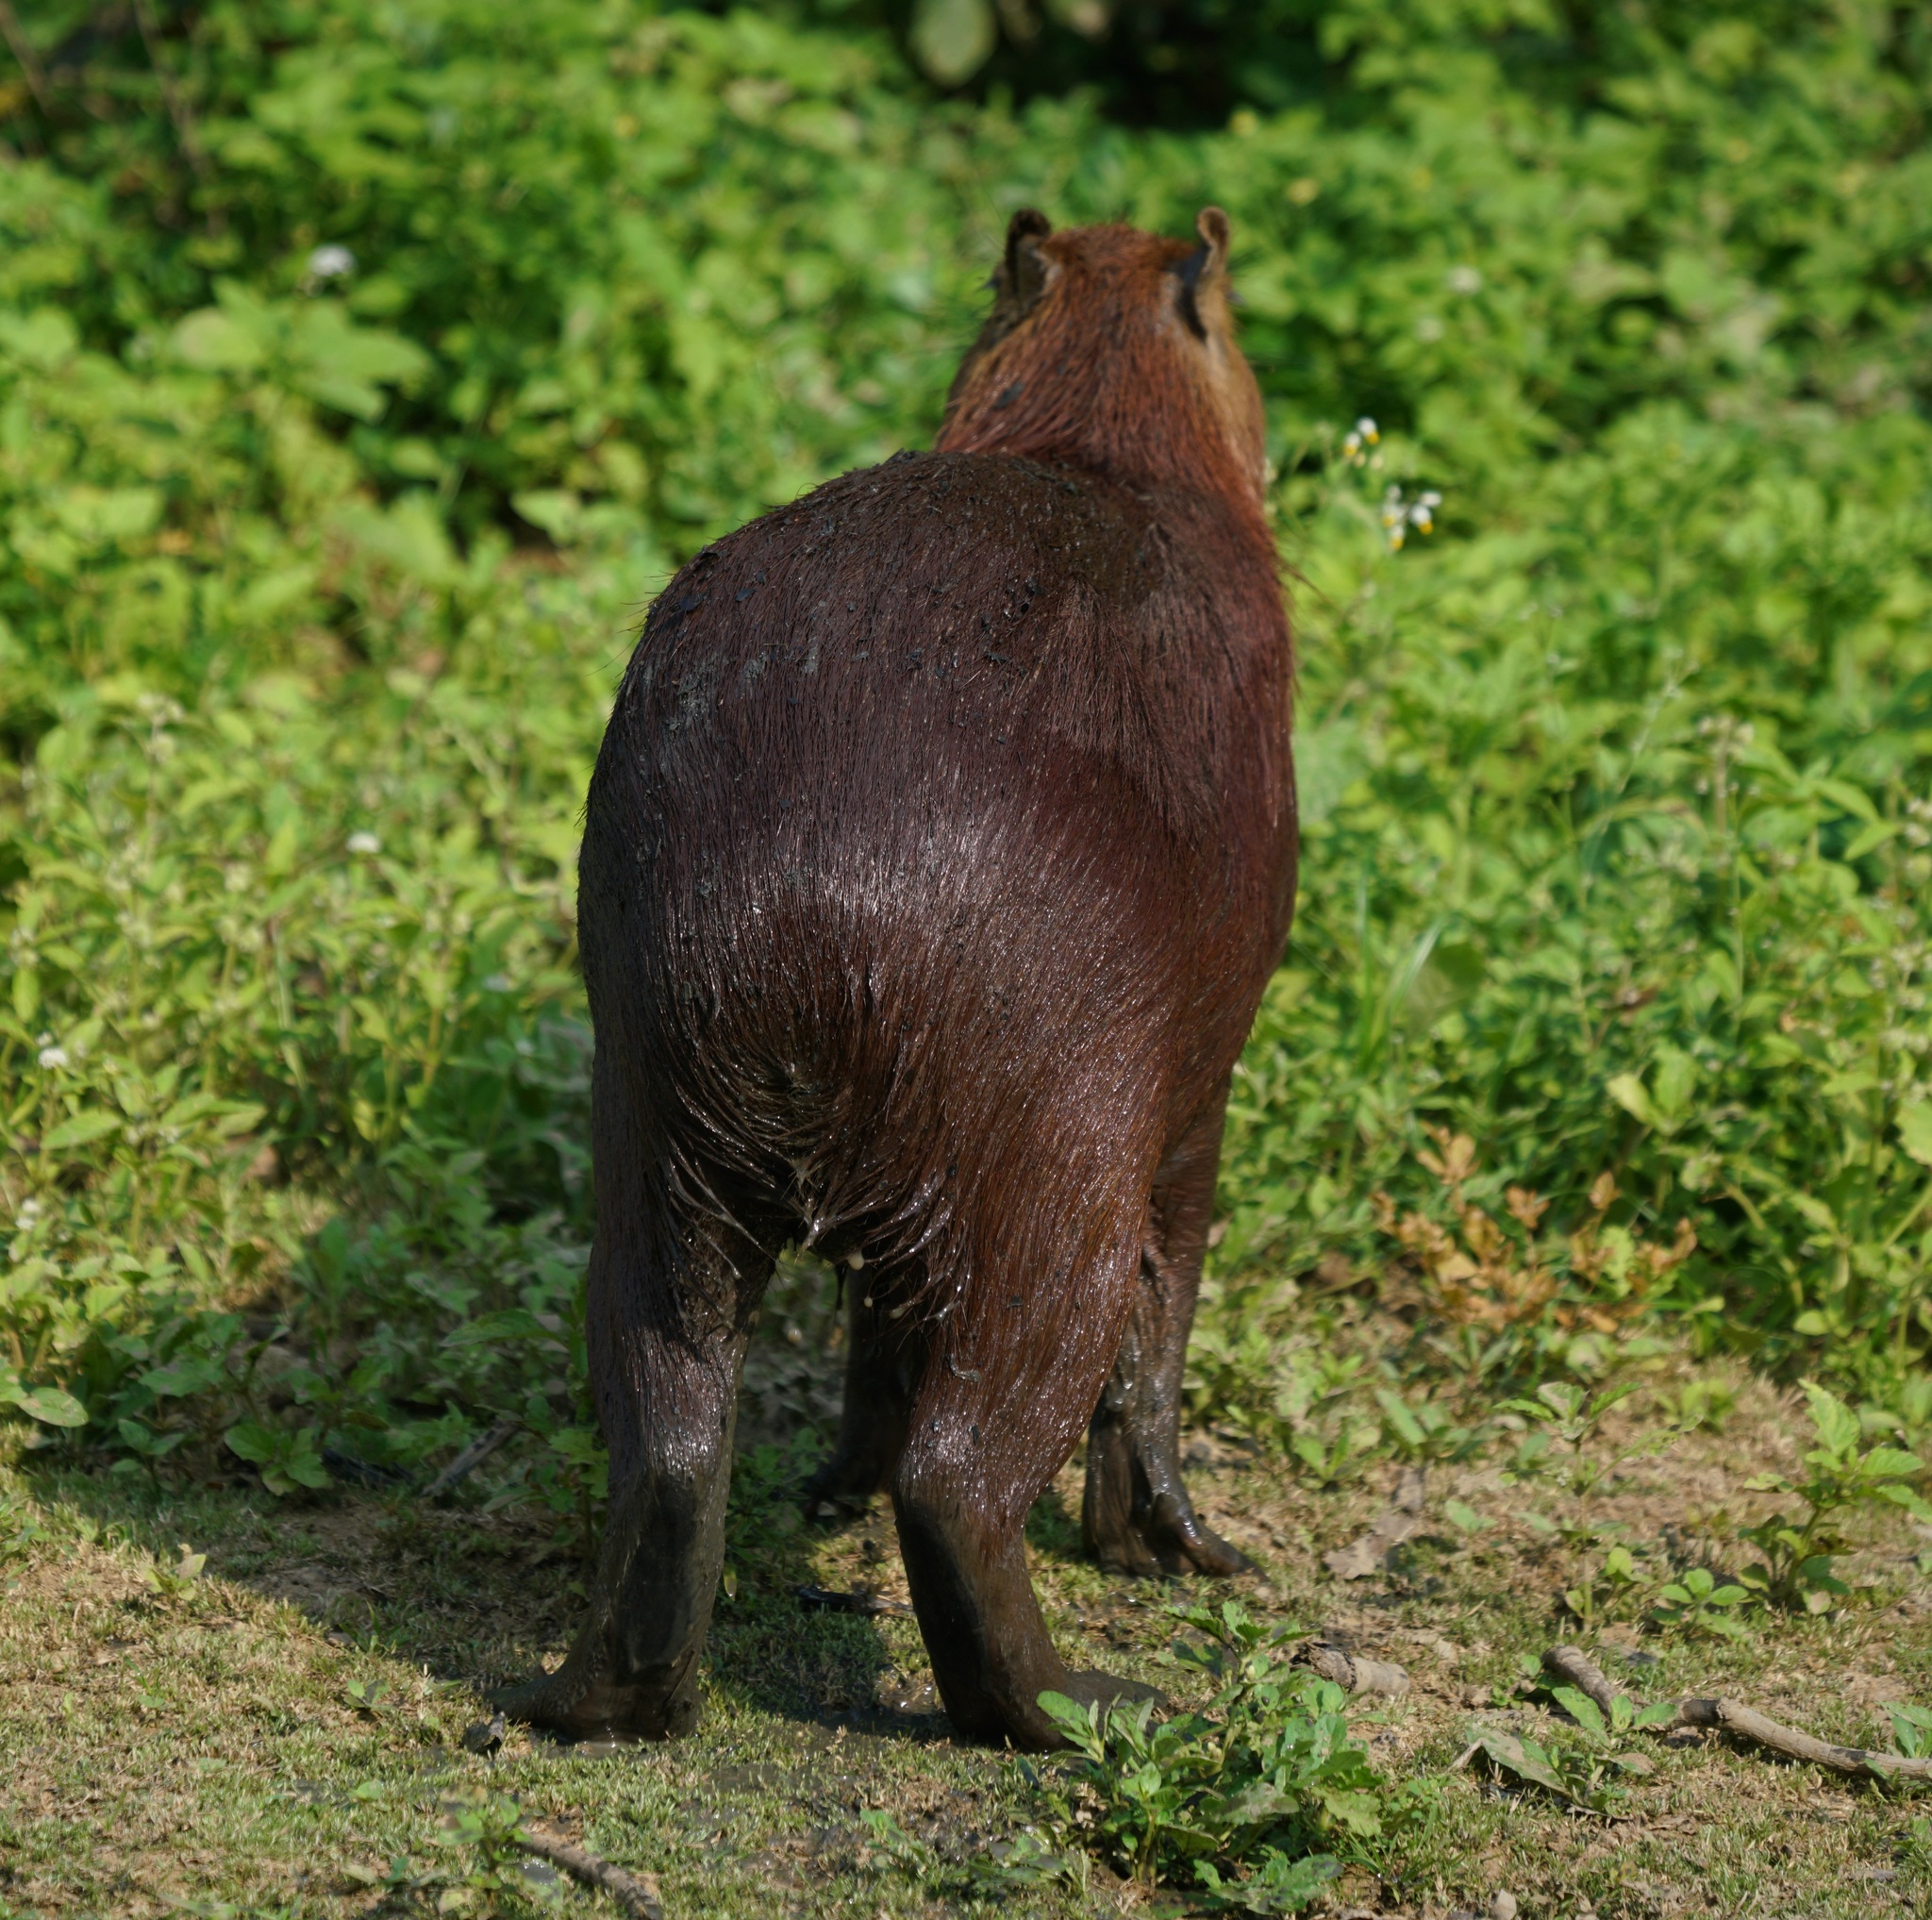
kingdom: Animalia
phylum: Chordata
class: Mammalia
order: Rodentia
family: Caviidae
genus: Hydrochoerus
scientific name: Hydrochoerus hydrochaeris
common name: Capybara
